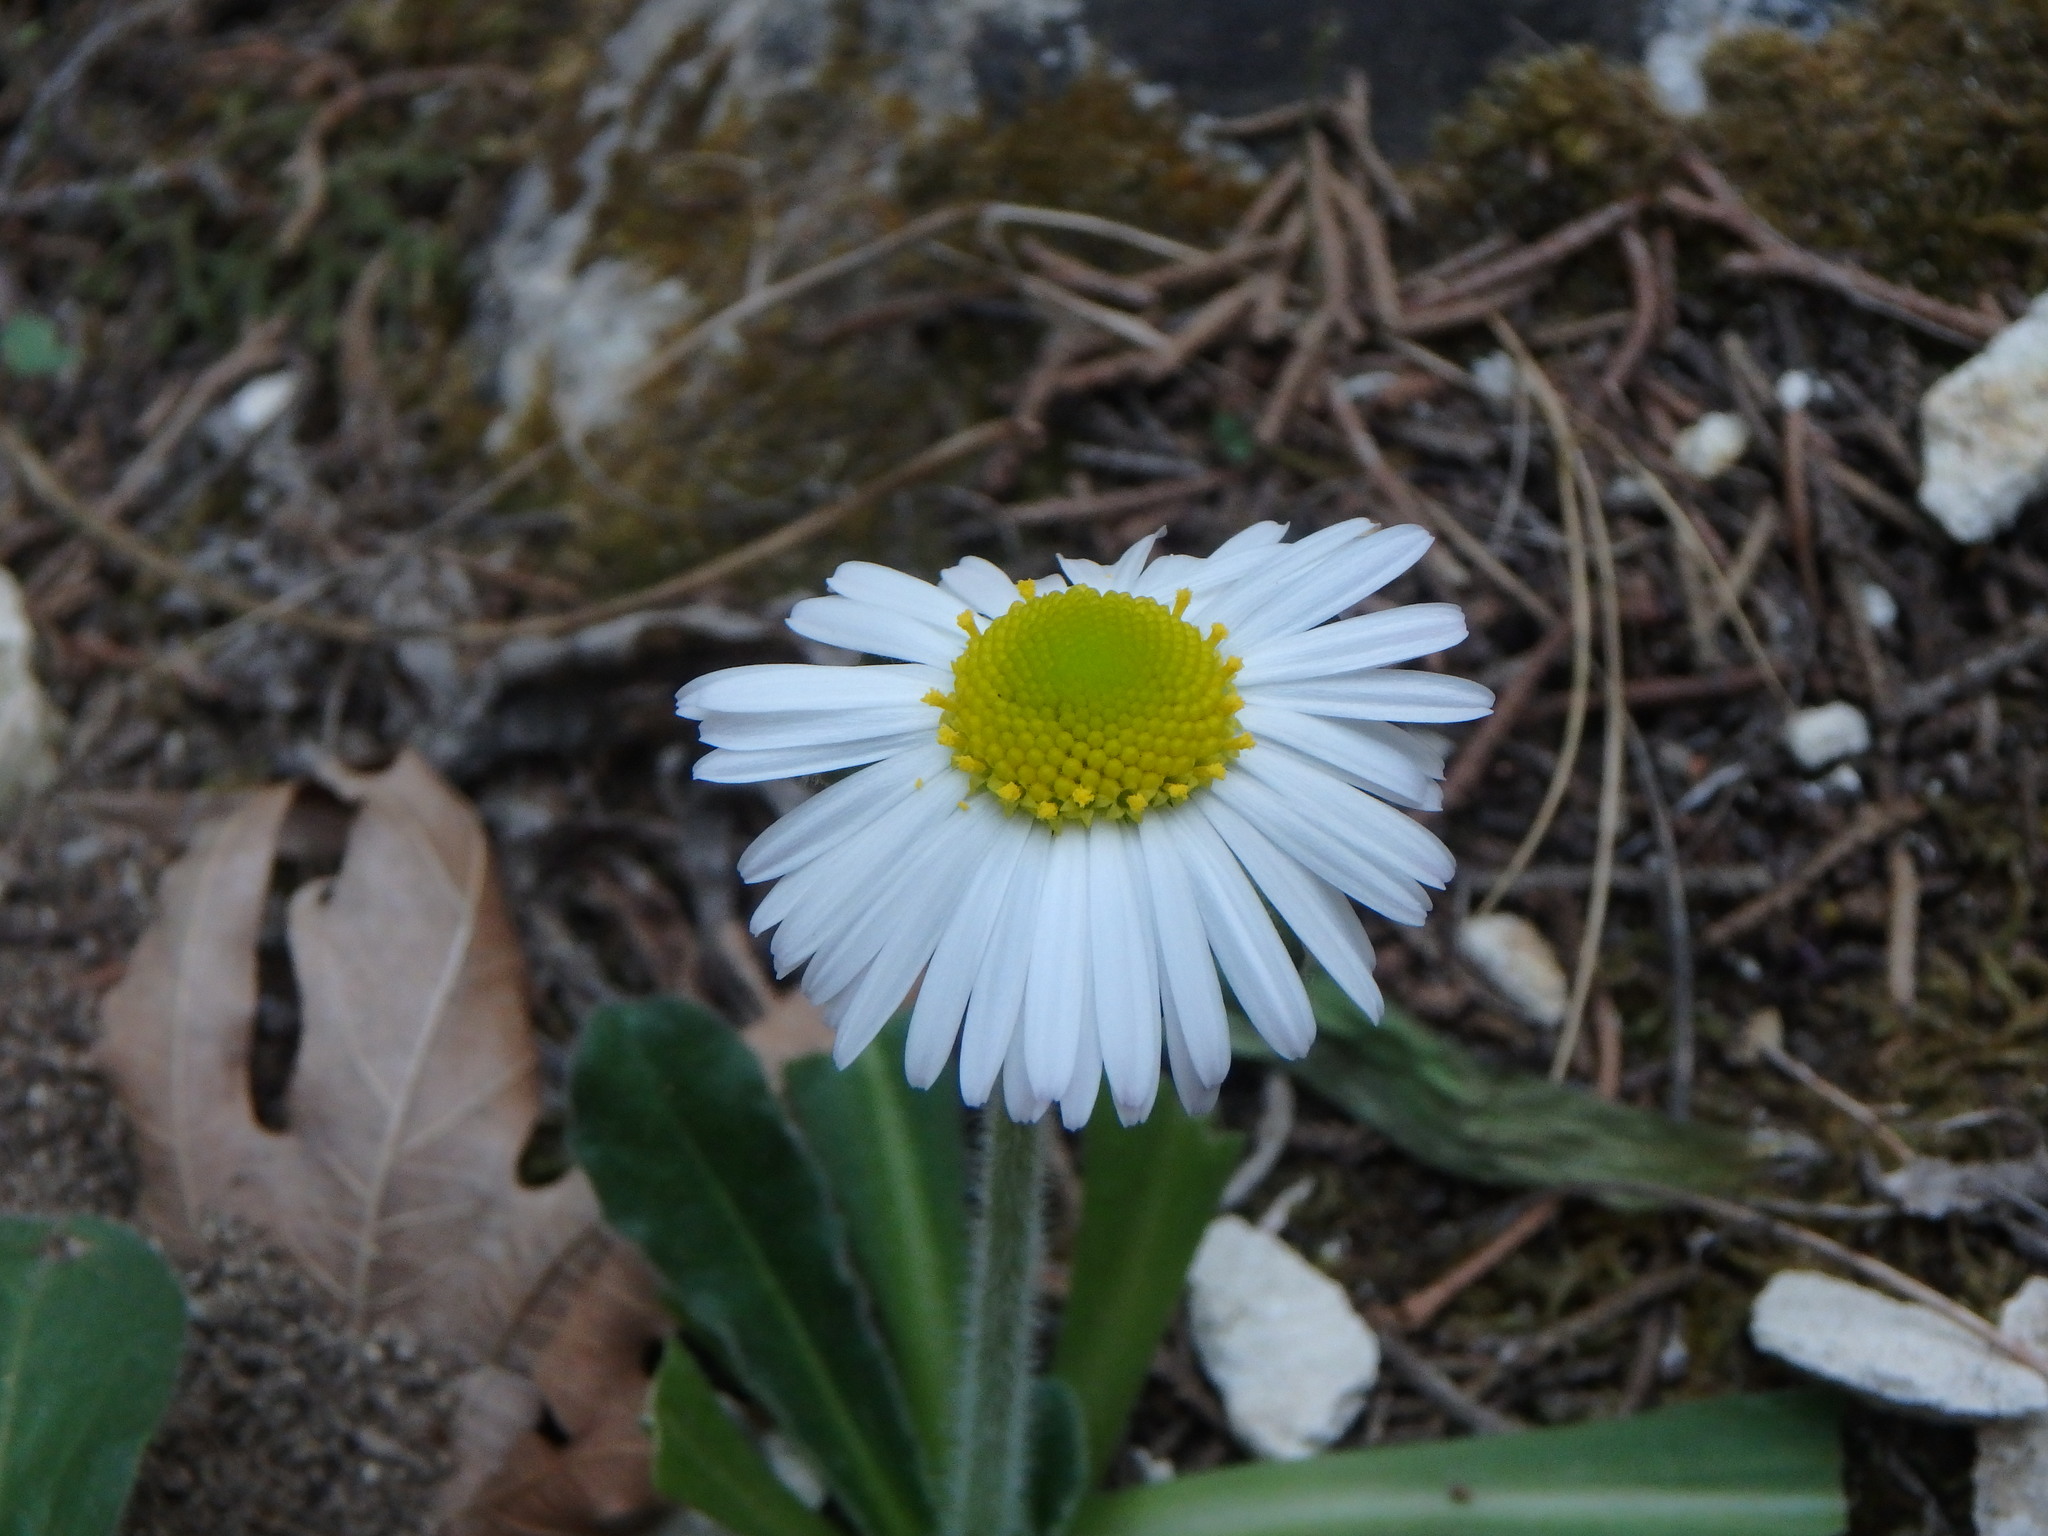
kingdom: Plantae
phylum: Tracheophyta
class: Magnoliopsida
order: Asterales
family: Asteraceae
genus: Bellis
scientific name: Bellis sylvestris
